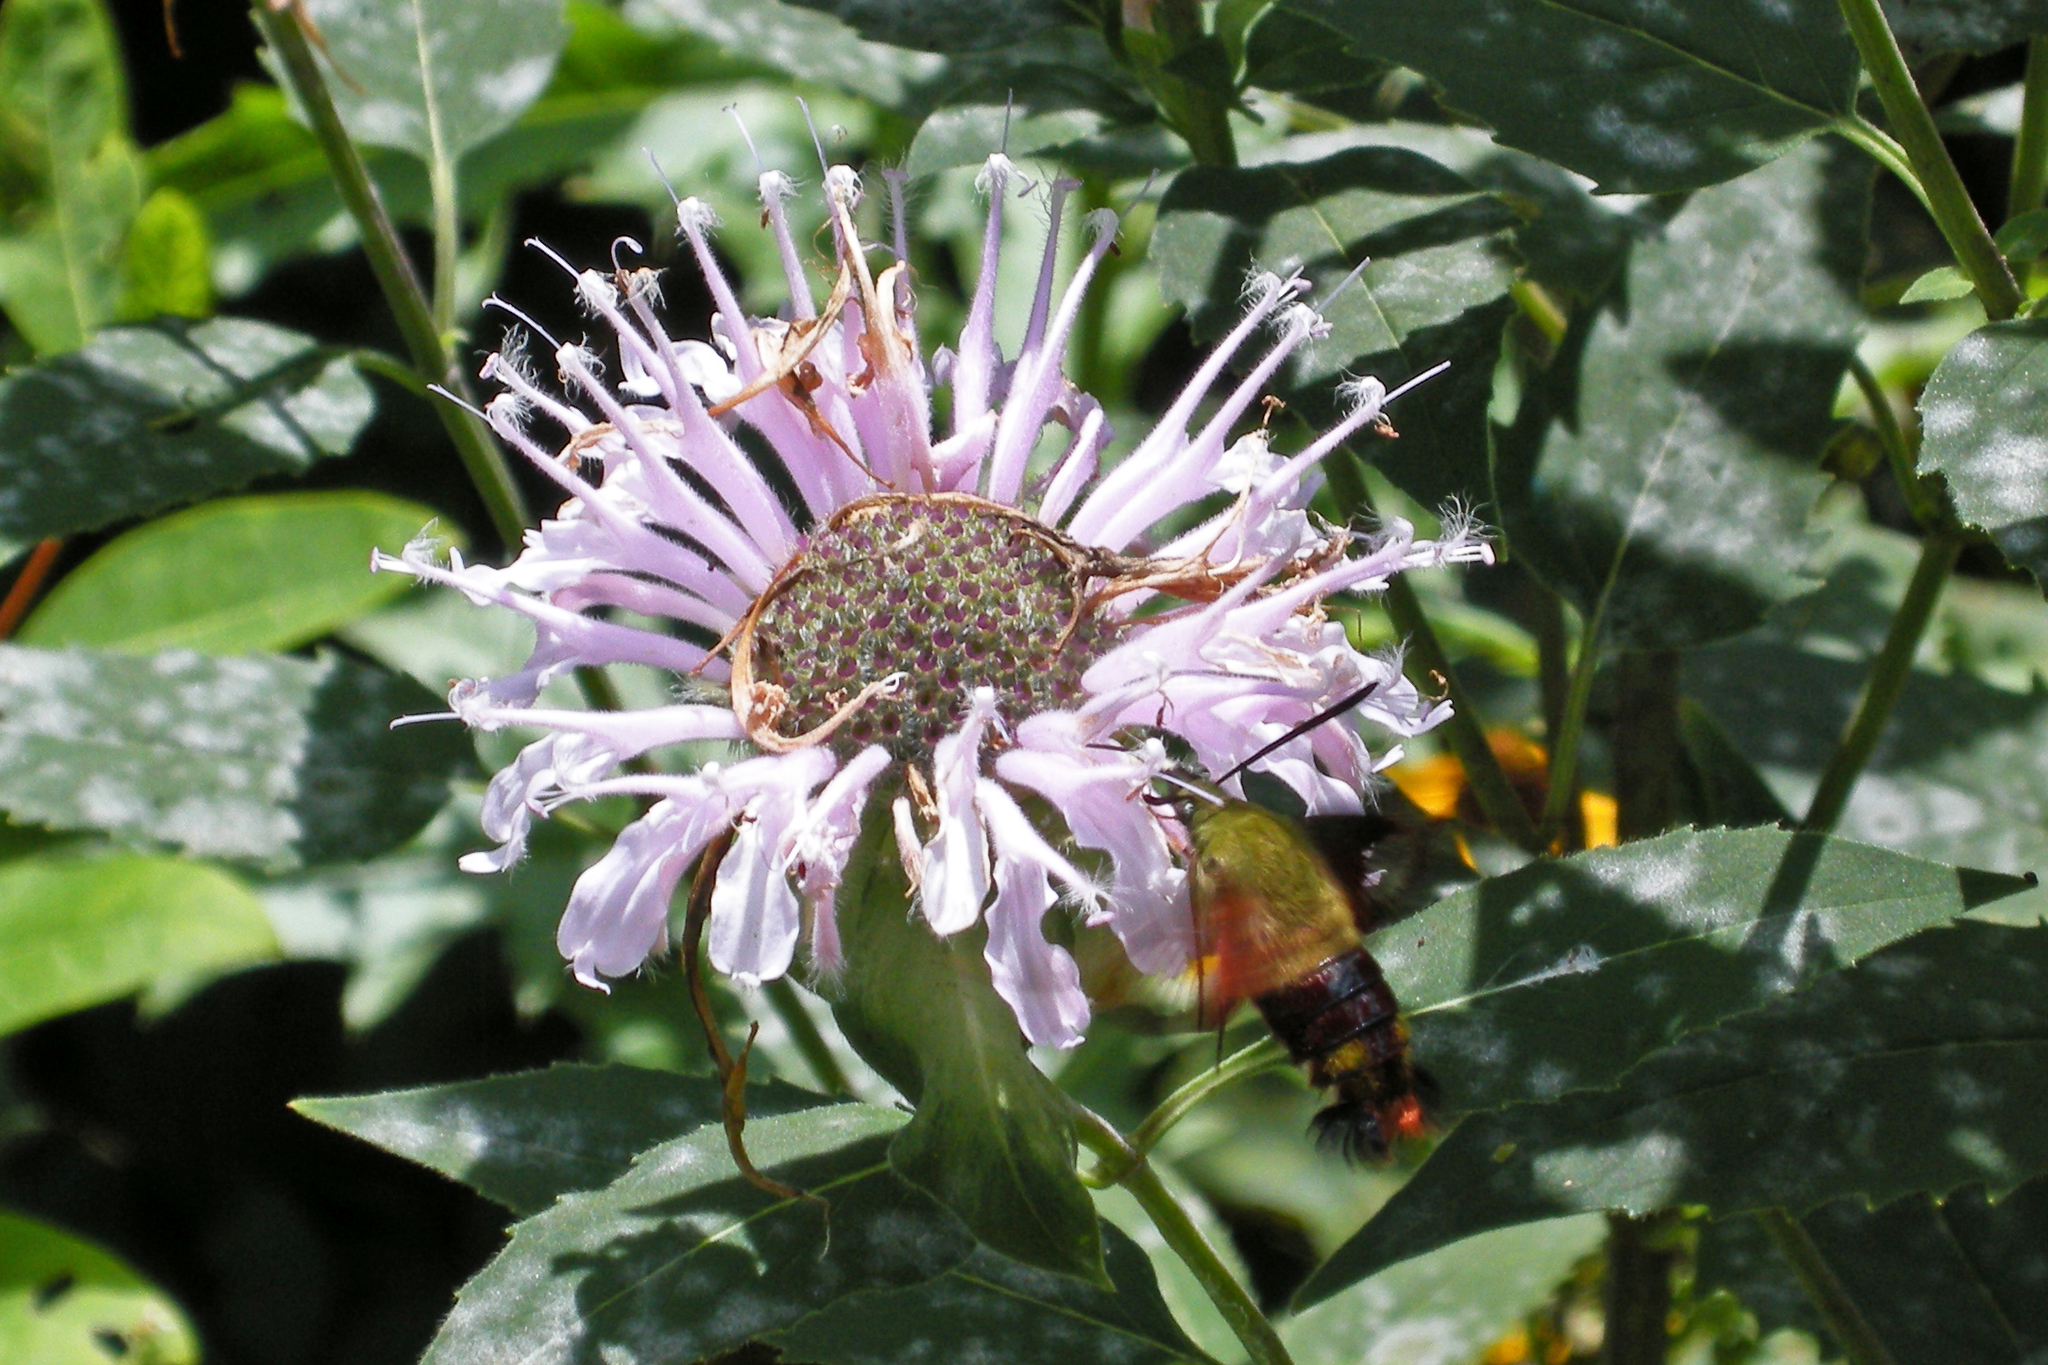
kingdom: Plantae
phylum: Tracheophyta
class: Magnoliopsida
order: Lamiales
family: Lamiaceae
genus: Monarda
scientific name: Monarda fistulosa
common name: Purple beebalm
